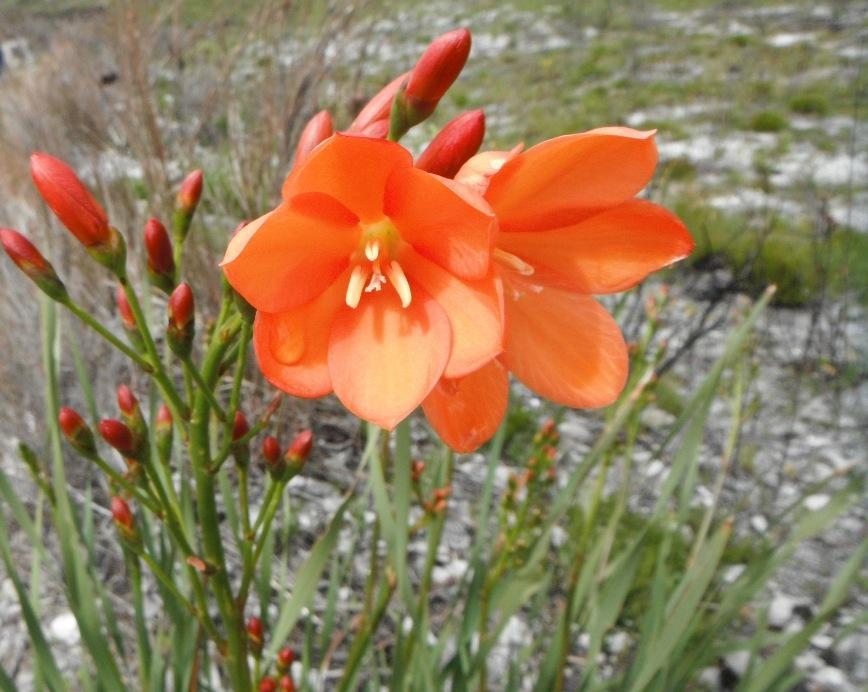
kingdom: Plantae
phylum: Tracheophyta
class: Liliopsida
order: Asparagales
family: Iridaceae
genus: Pillansia
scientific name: Pillansia templemannii
